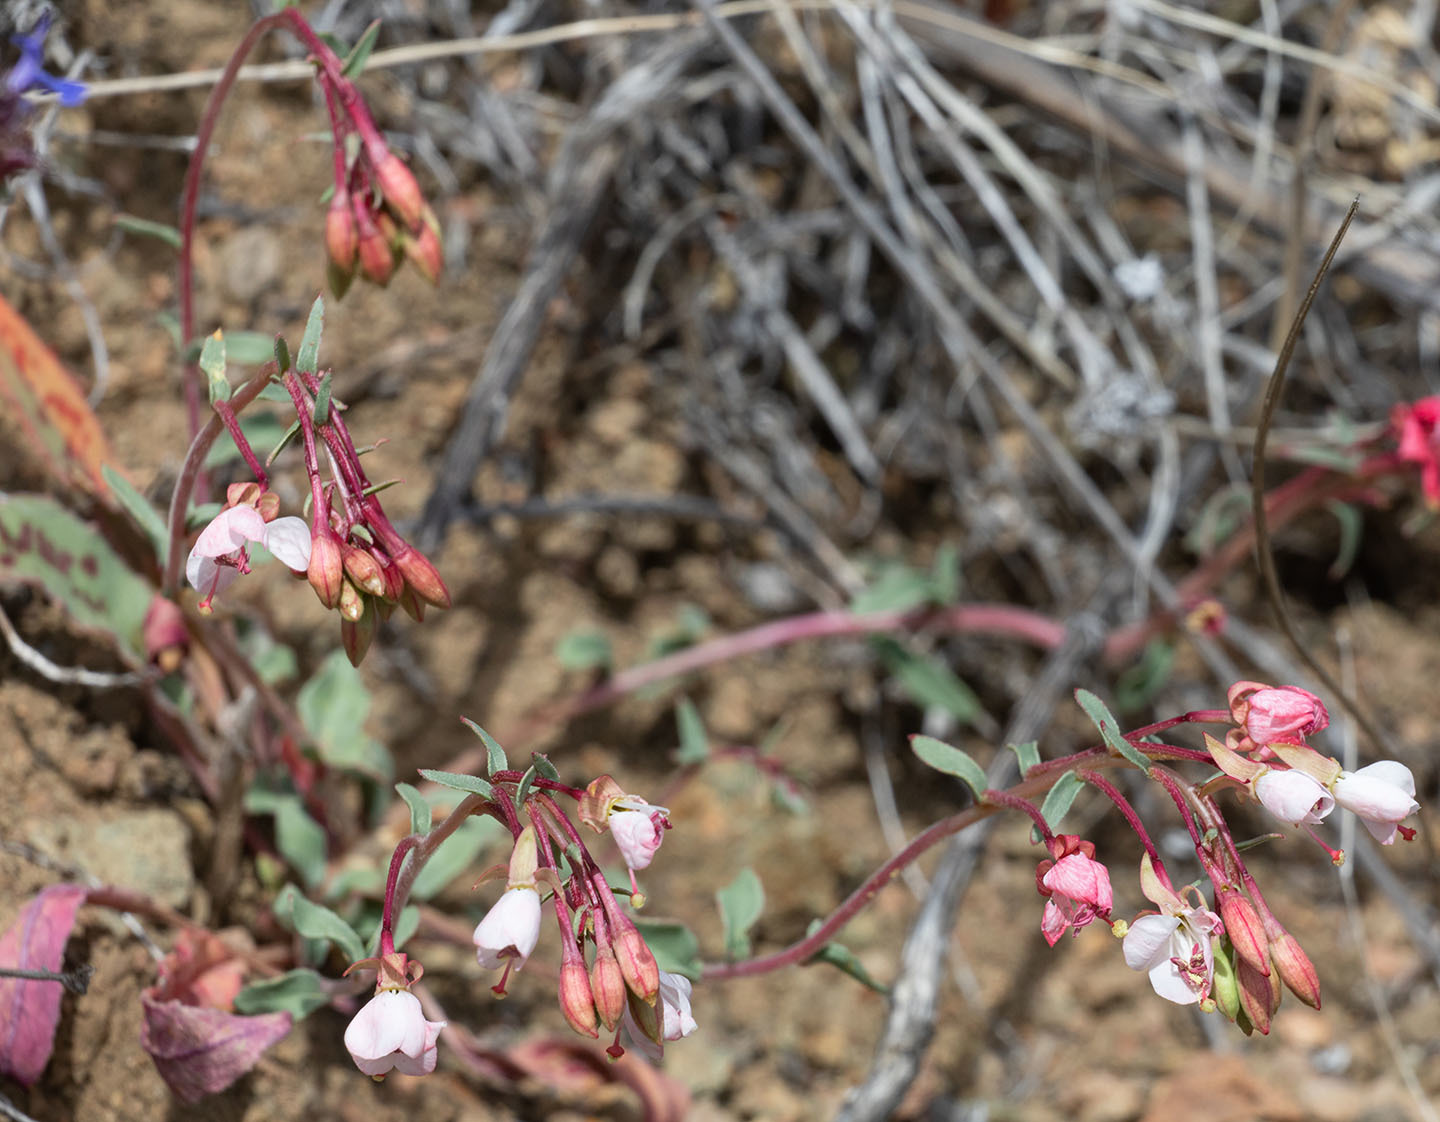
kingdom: Plantae
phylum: Tracheophyta
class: Magnoliopsida
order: Myrtales
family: Onagraceae
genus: Eremothera
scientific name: Eremothera boothii
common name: Booth's evening primrose
